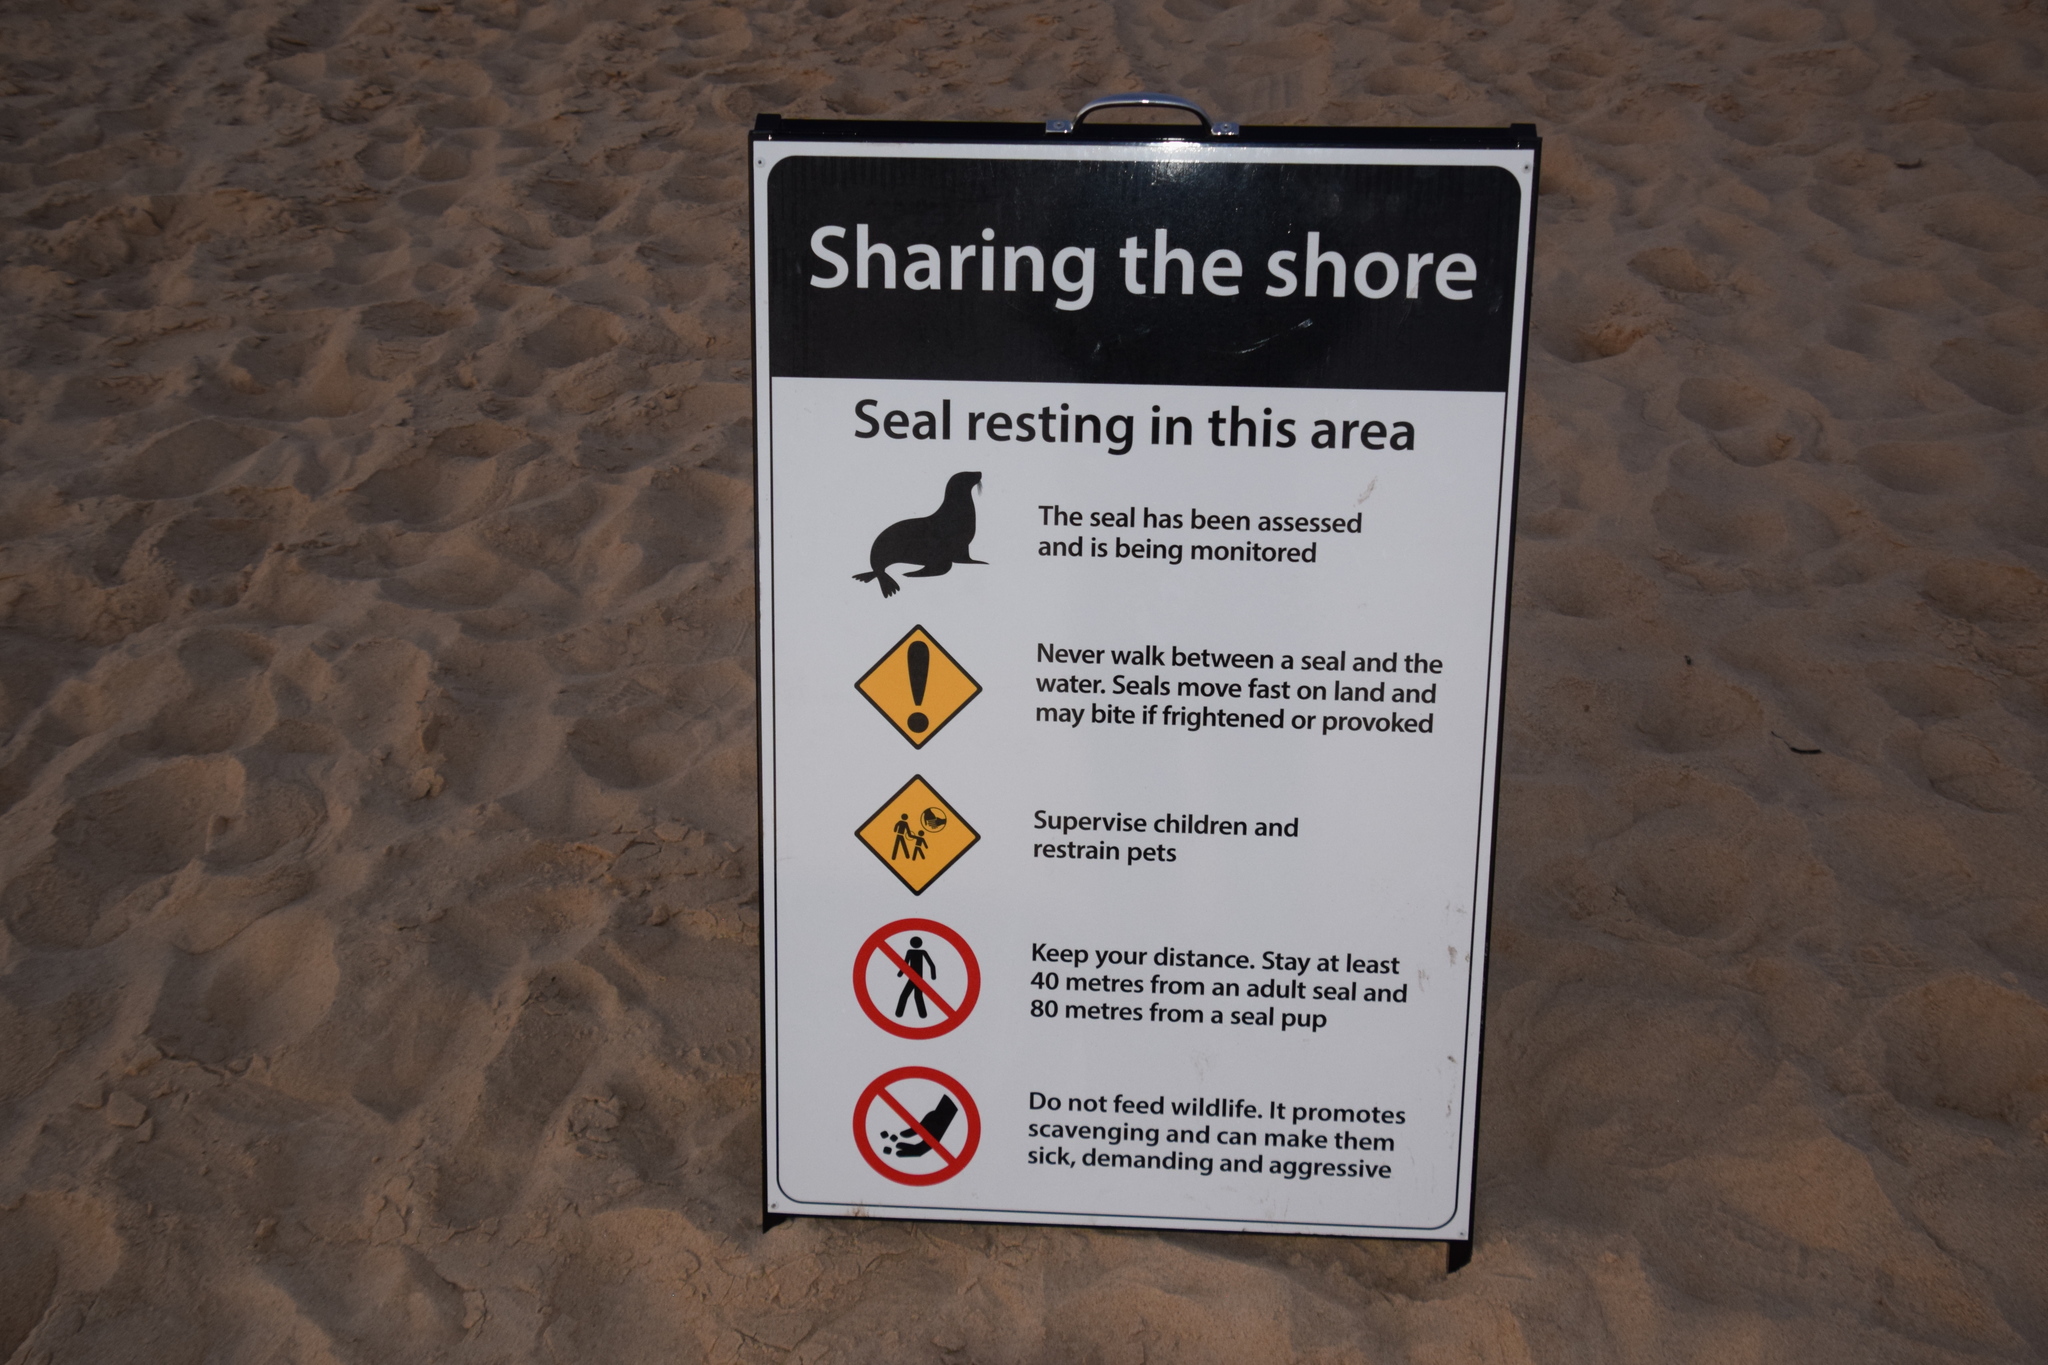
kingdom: Animalia
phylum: Chordata
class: Mammalia
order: Carnivora
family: Phocidae
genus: Hydrurga
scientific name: Hydrurga leptonyx
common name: Leopard seal
